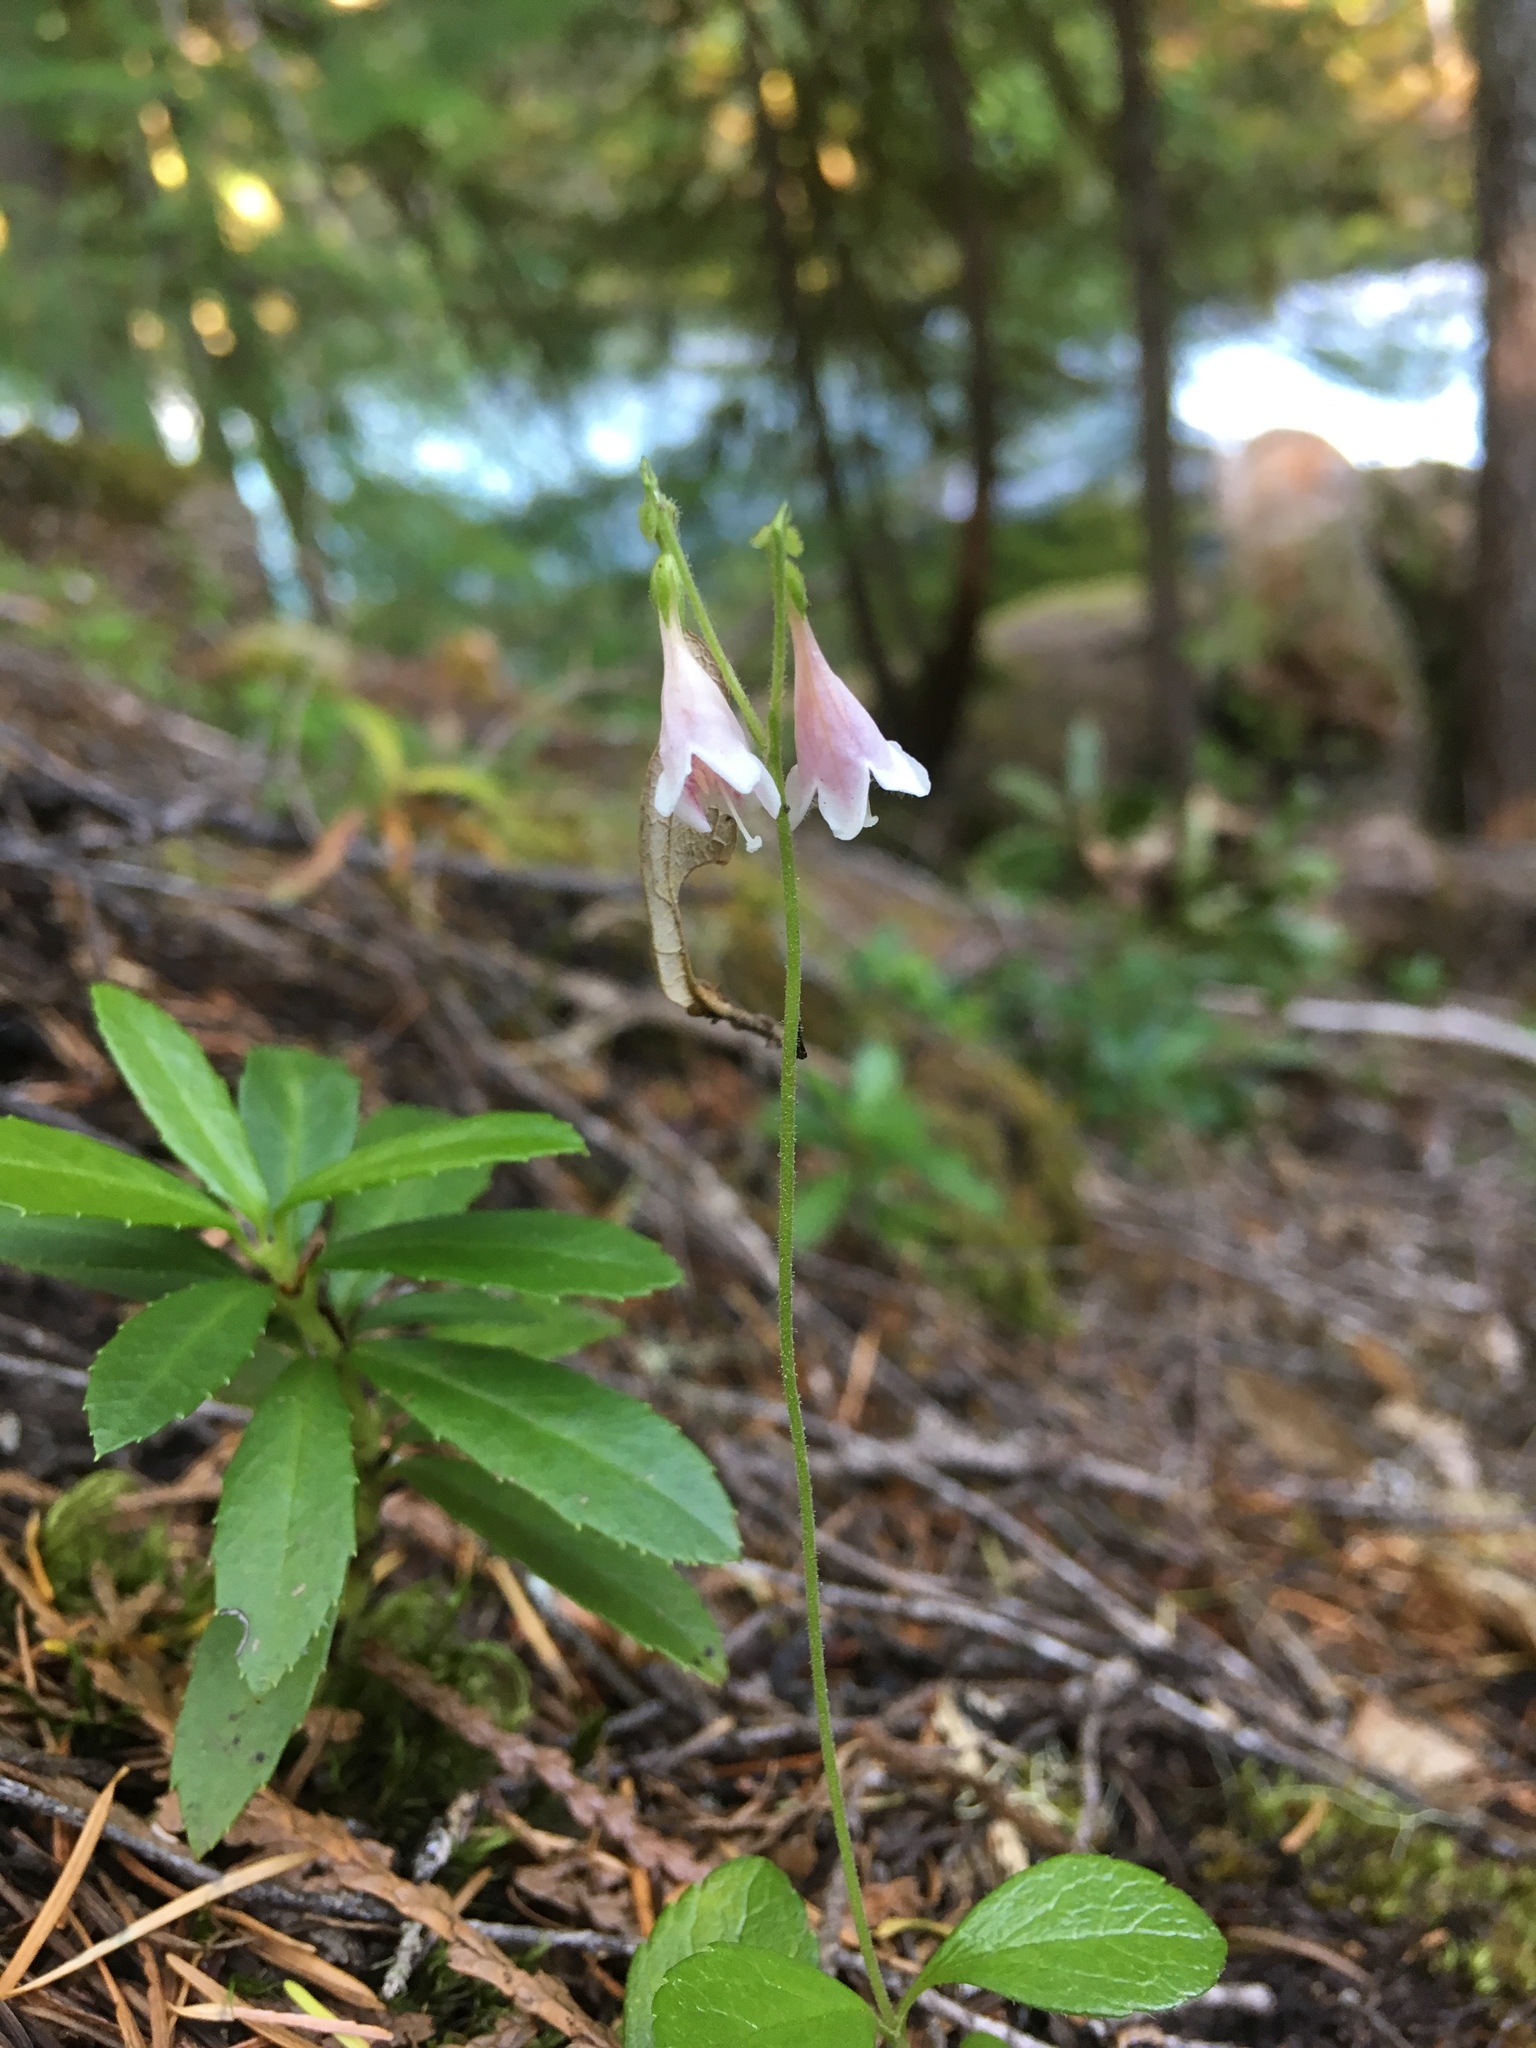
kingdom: Plantae
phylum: Tracheophyta
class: Magnoliopsida
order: Dipsacales
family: Caprifoliaceae
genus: Linnaea
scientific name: Linnaea borealis
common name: Twinflower
